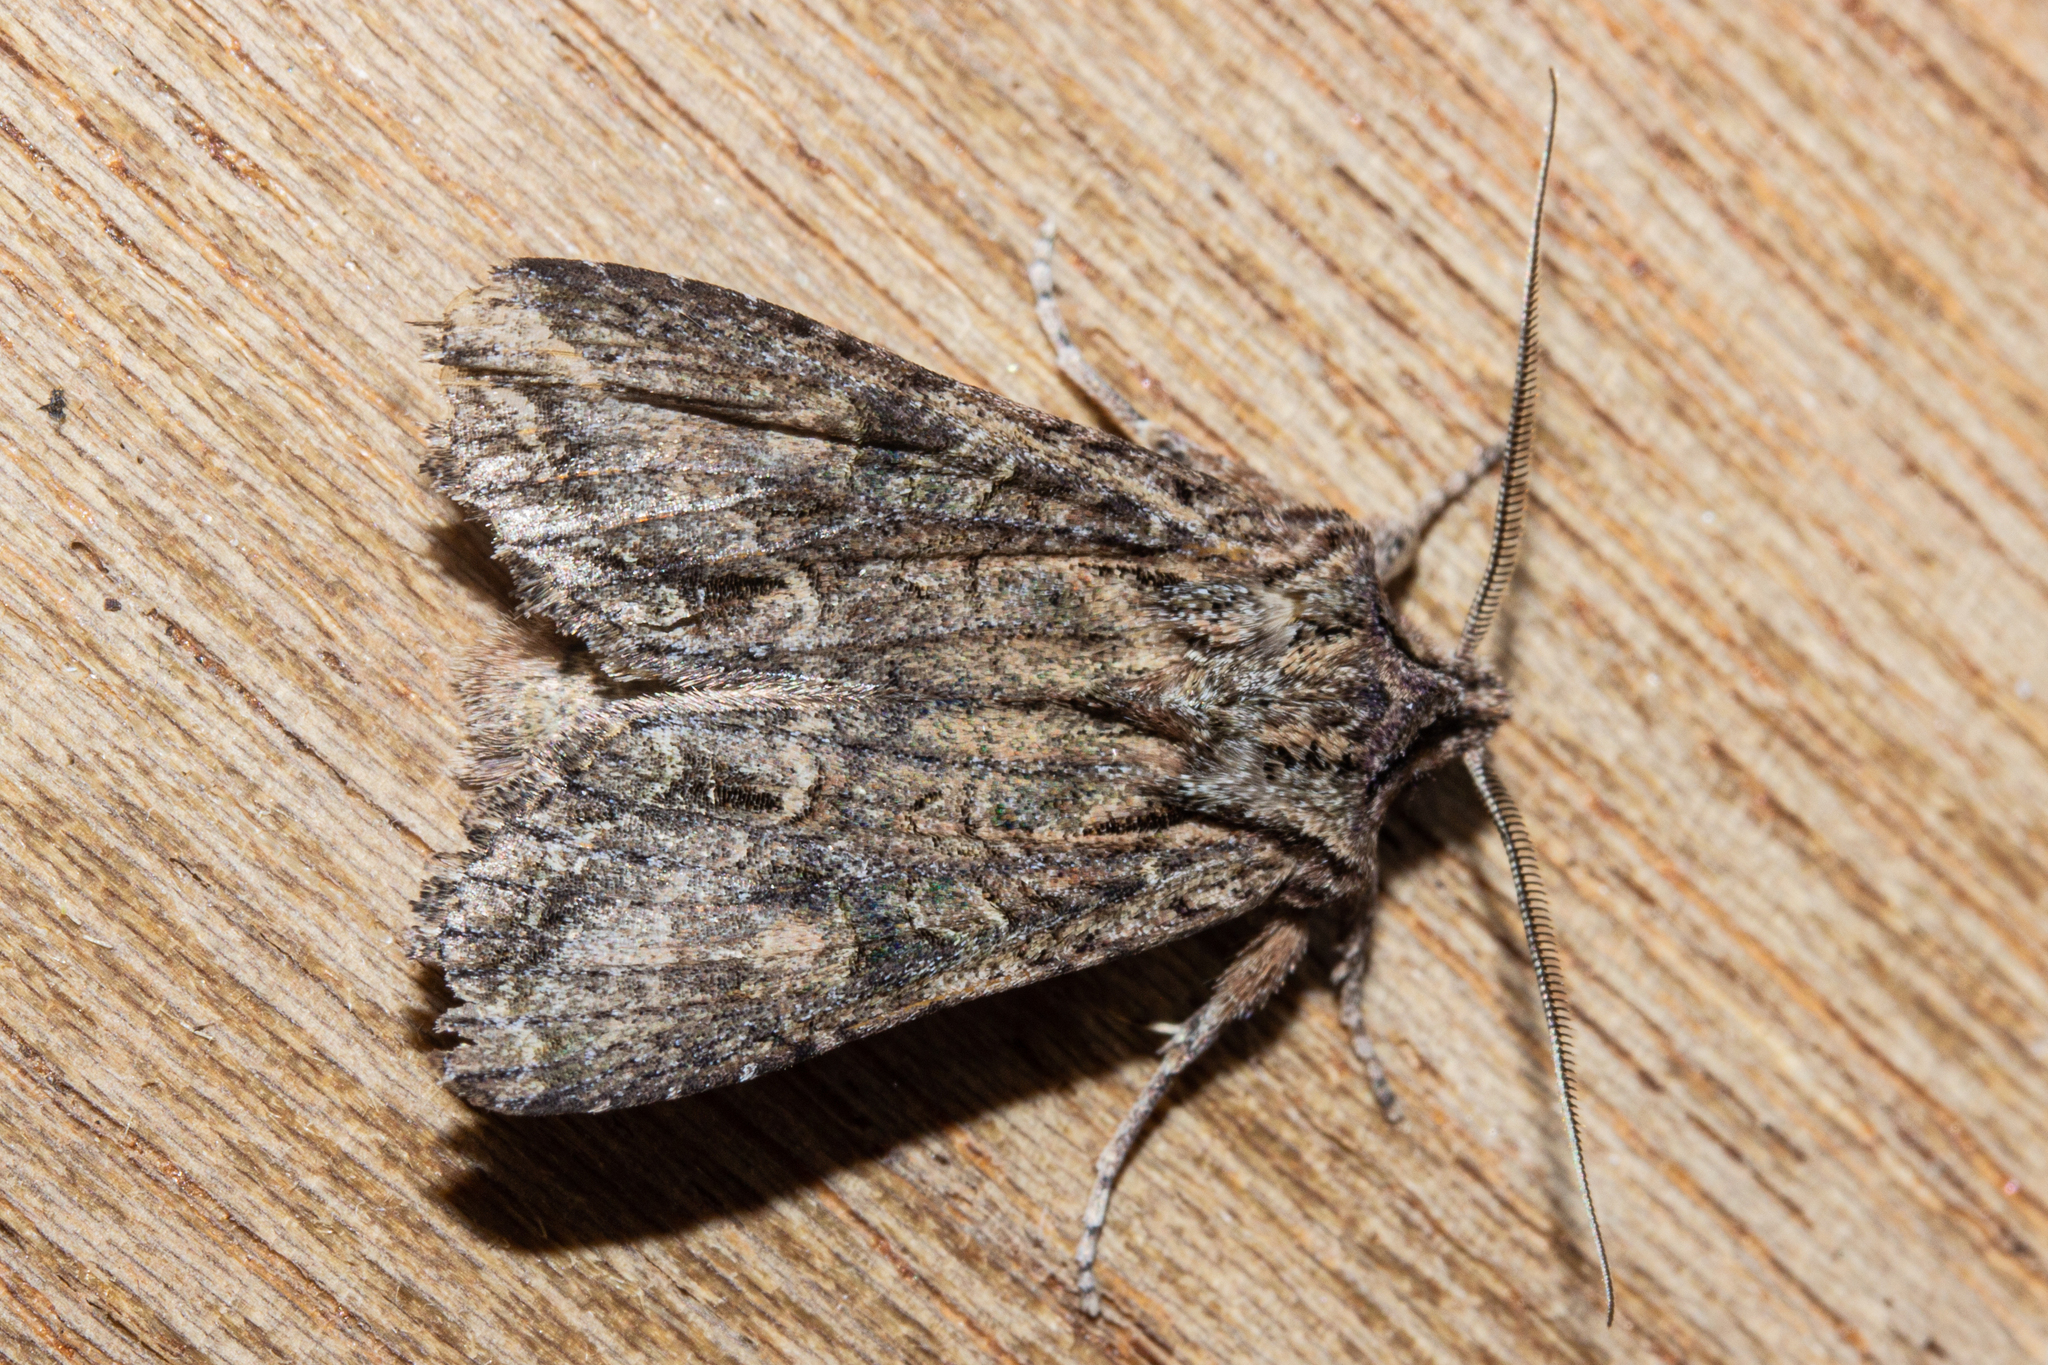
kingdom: Animalia
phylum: Arthropoda
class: Insecta
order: Lepidoptera
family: Noctuidae
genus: Ichneutica
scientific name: Ichneutica mutans
